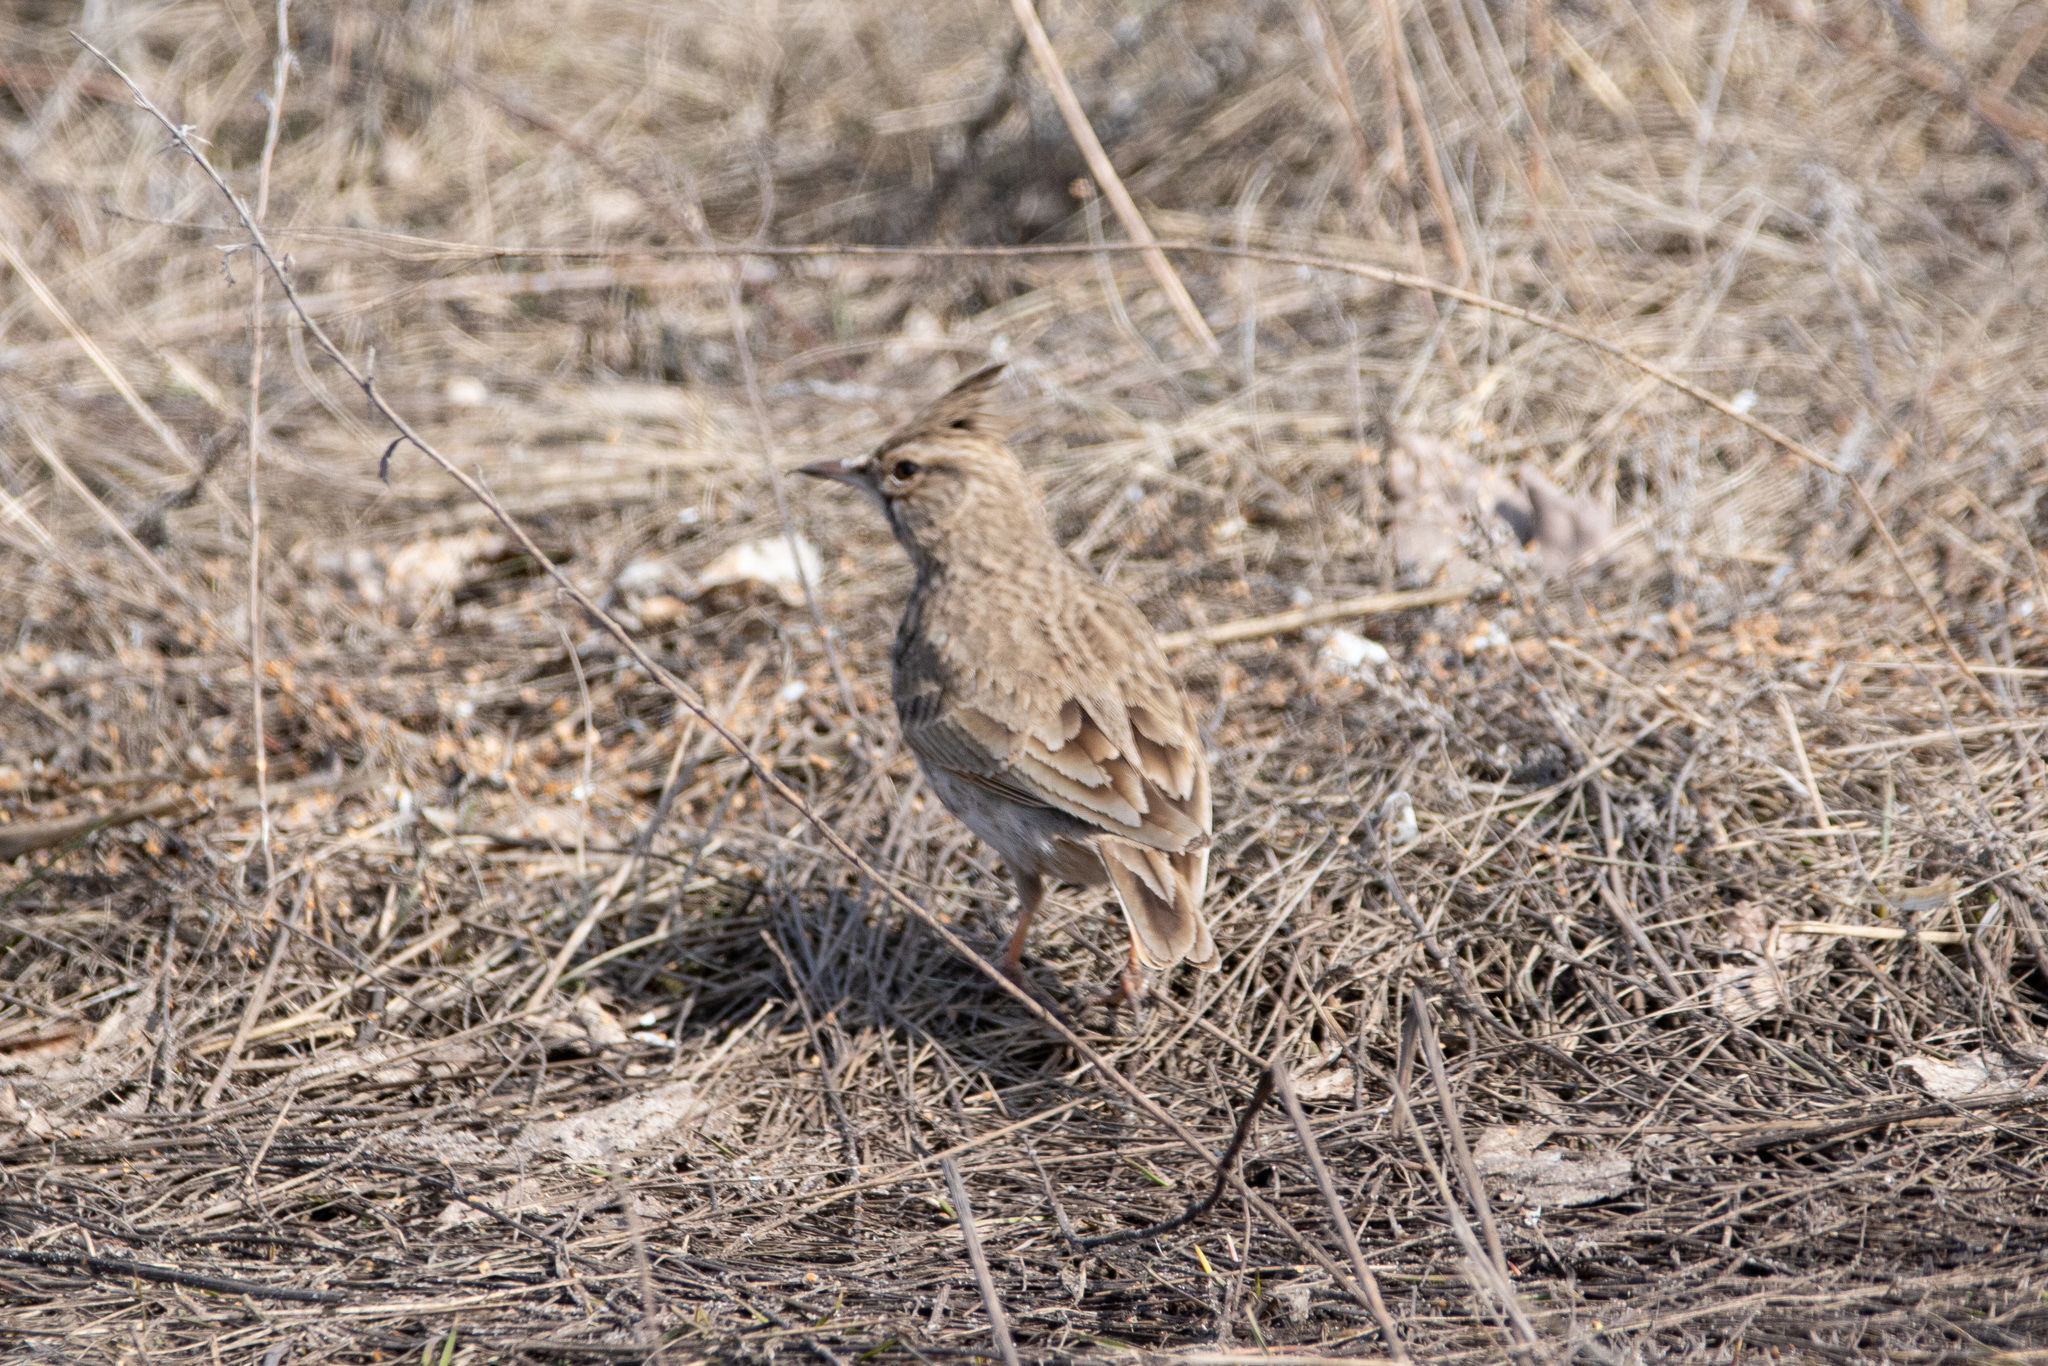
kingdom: Animalia
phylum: Chordata
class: Aves
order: Passeriformes
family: Alaudidae
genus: Galerida
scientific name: Galerida cristata
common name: Crested lark
